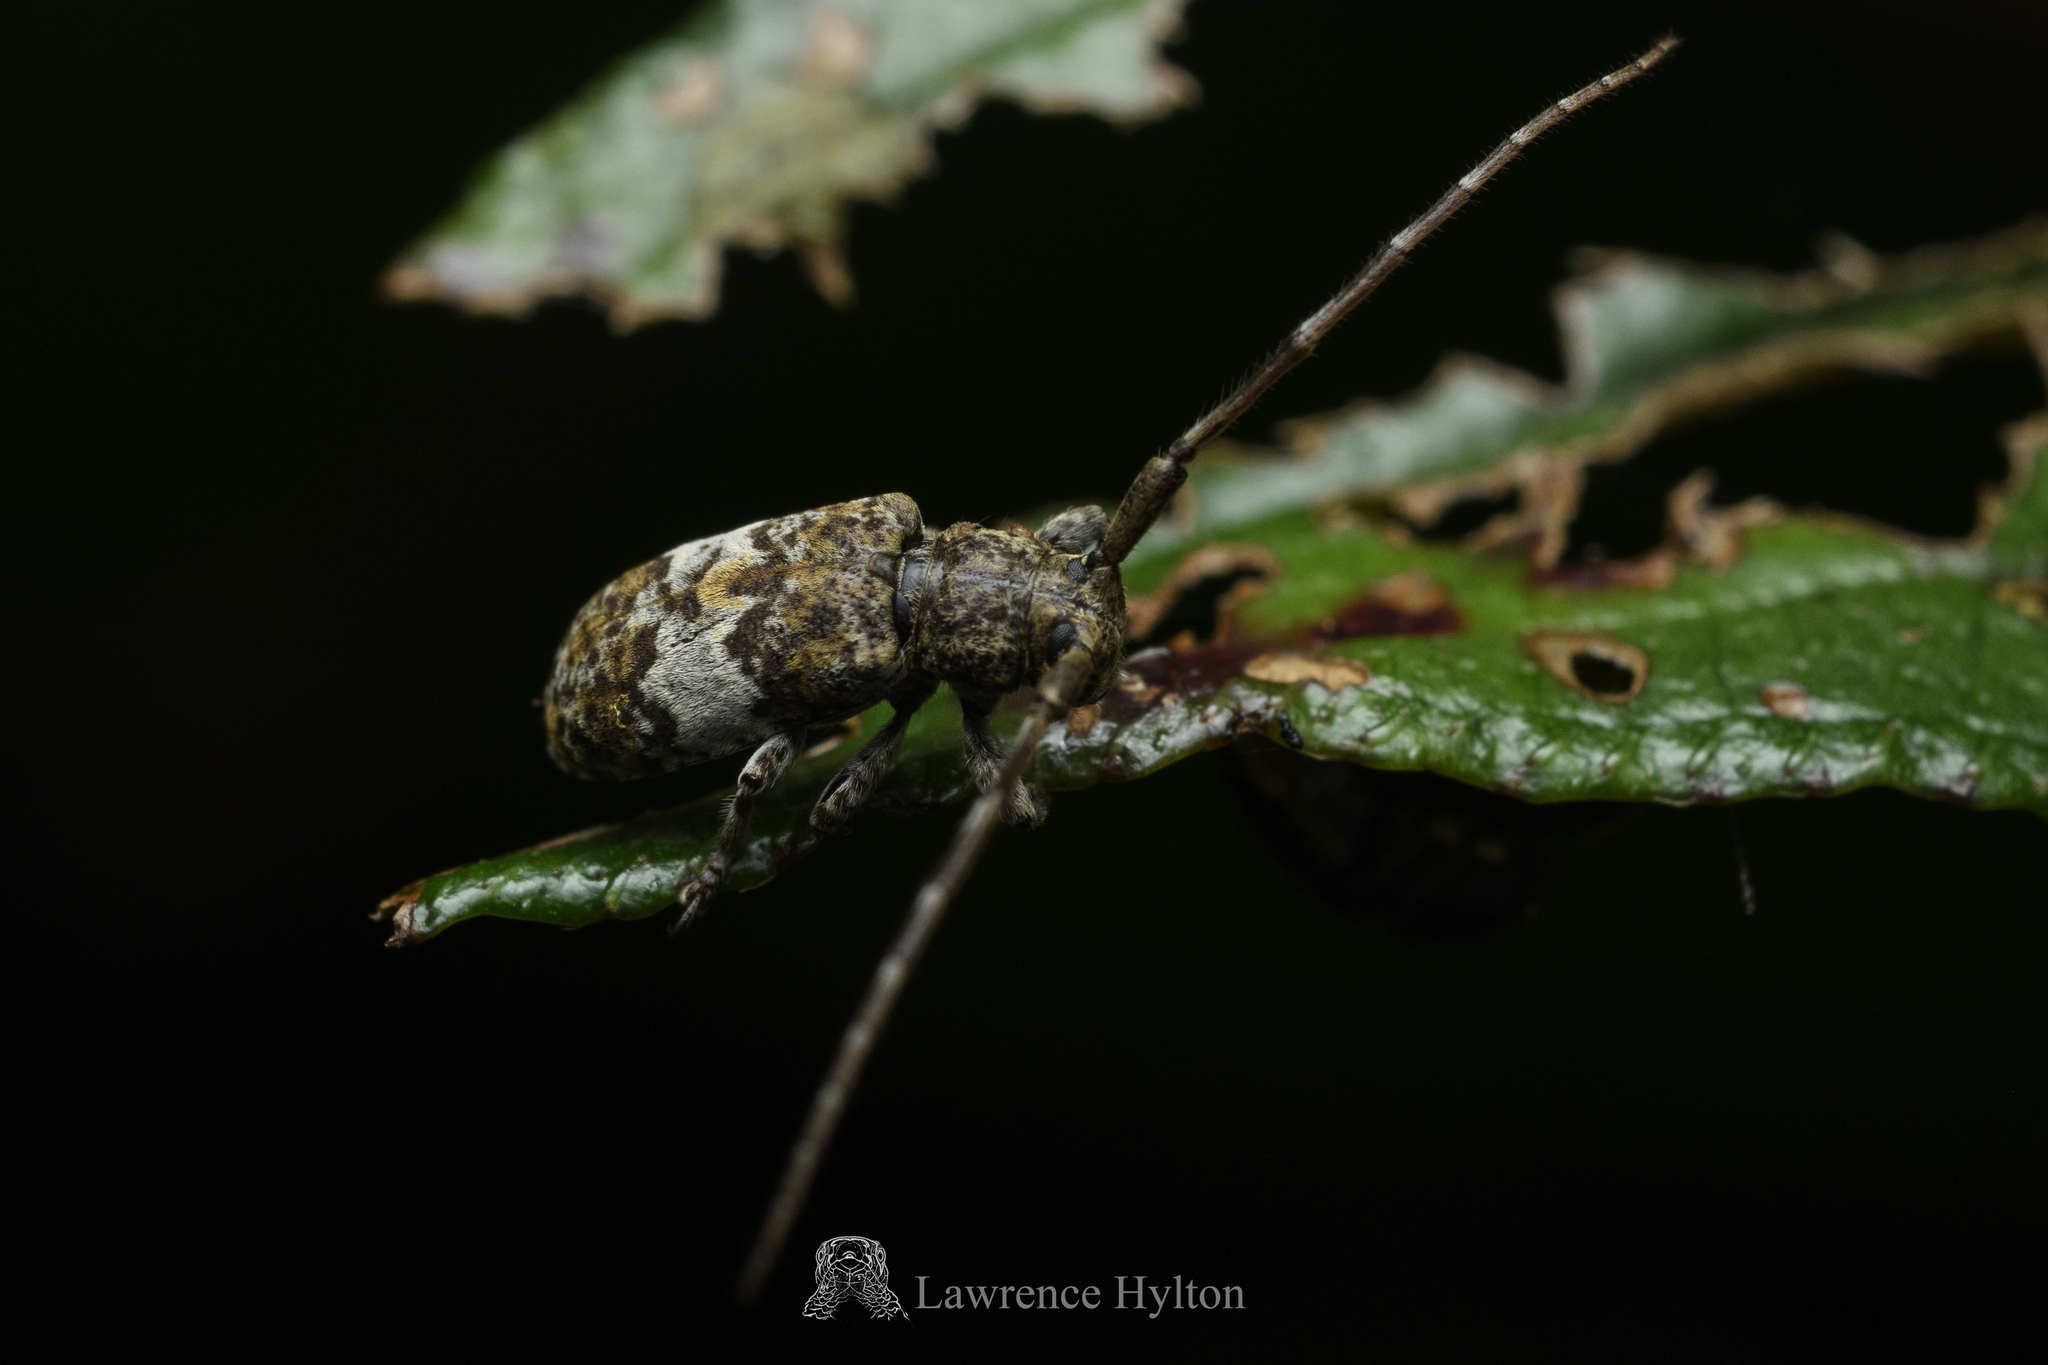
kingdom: Animalia
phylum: Arthropoda
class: Insecta
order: Coleoptera
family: Cerambycidae
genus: Falsomesosella
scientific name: Falsomesosella grisella
